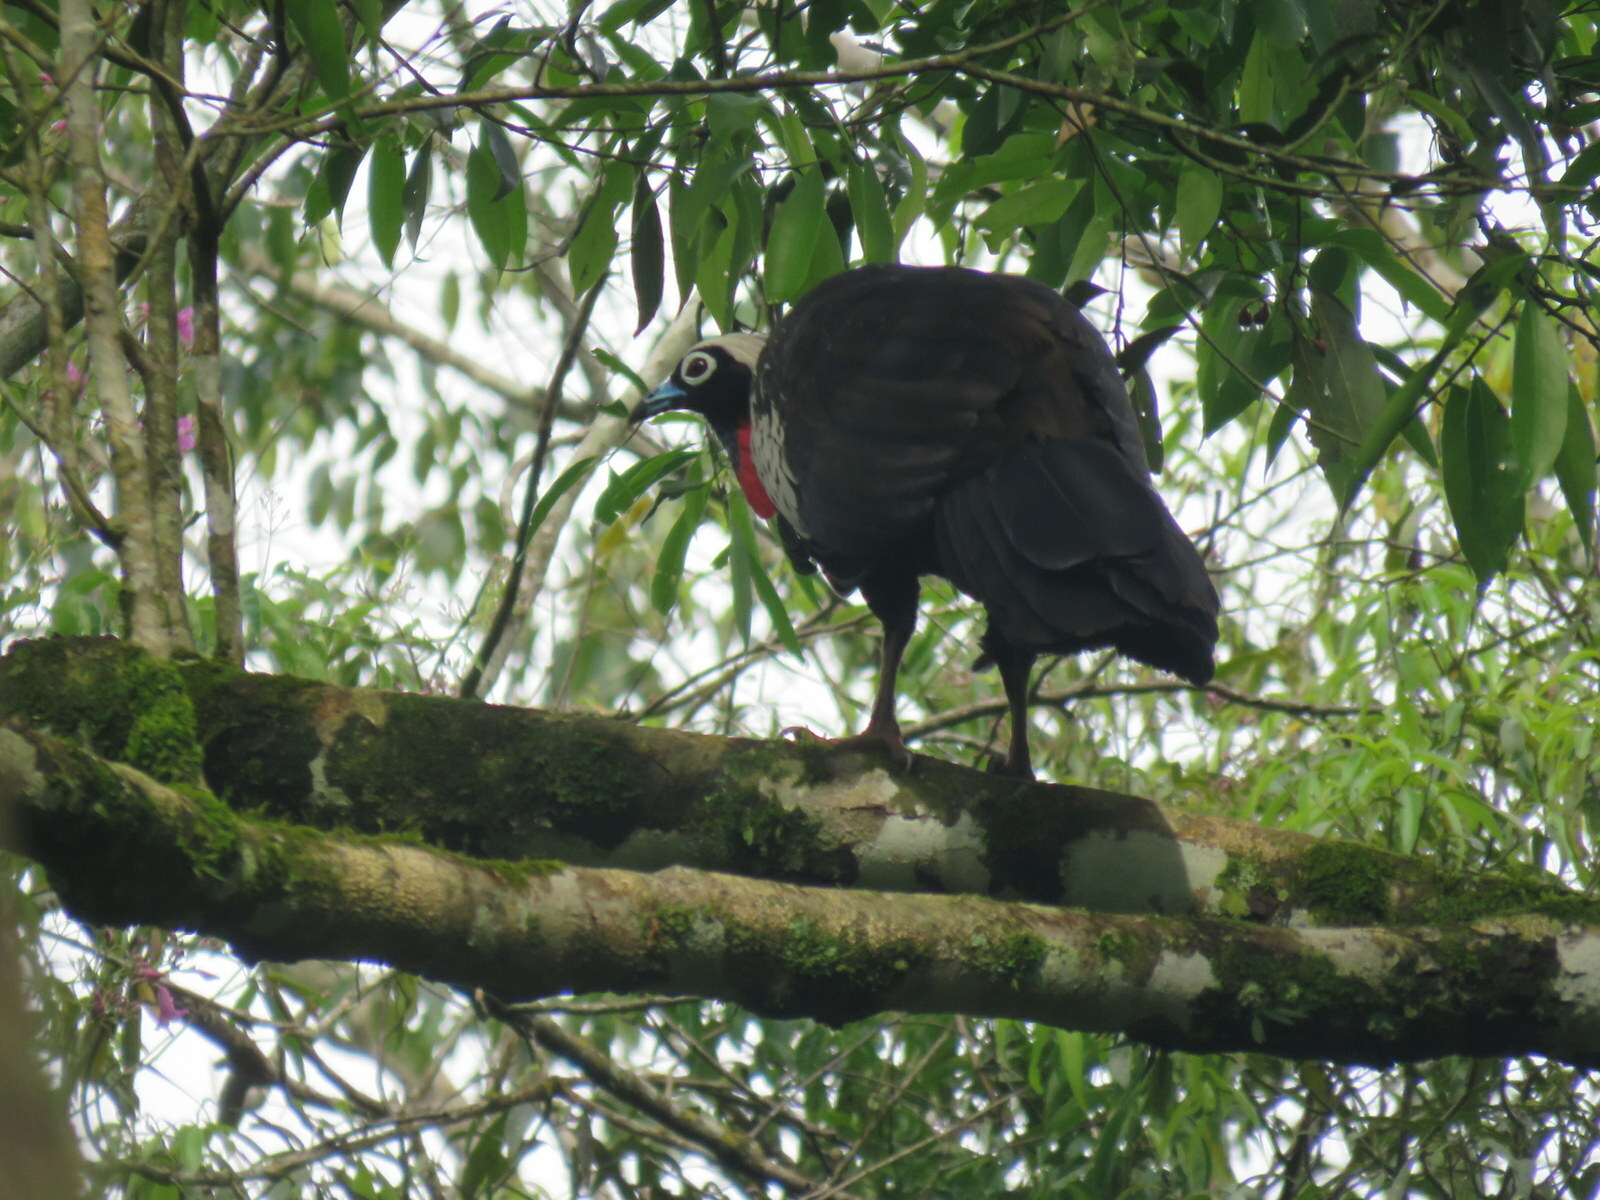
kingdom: Animalia
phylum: Chordata
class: Aves
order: Galliformes
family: Cracidae
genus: Pipile
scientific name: Pipile jacutinga
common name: Black-fronted piping-guan
